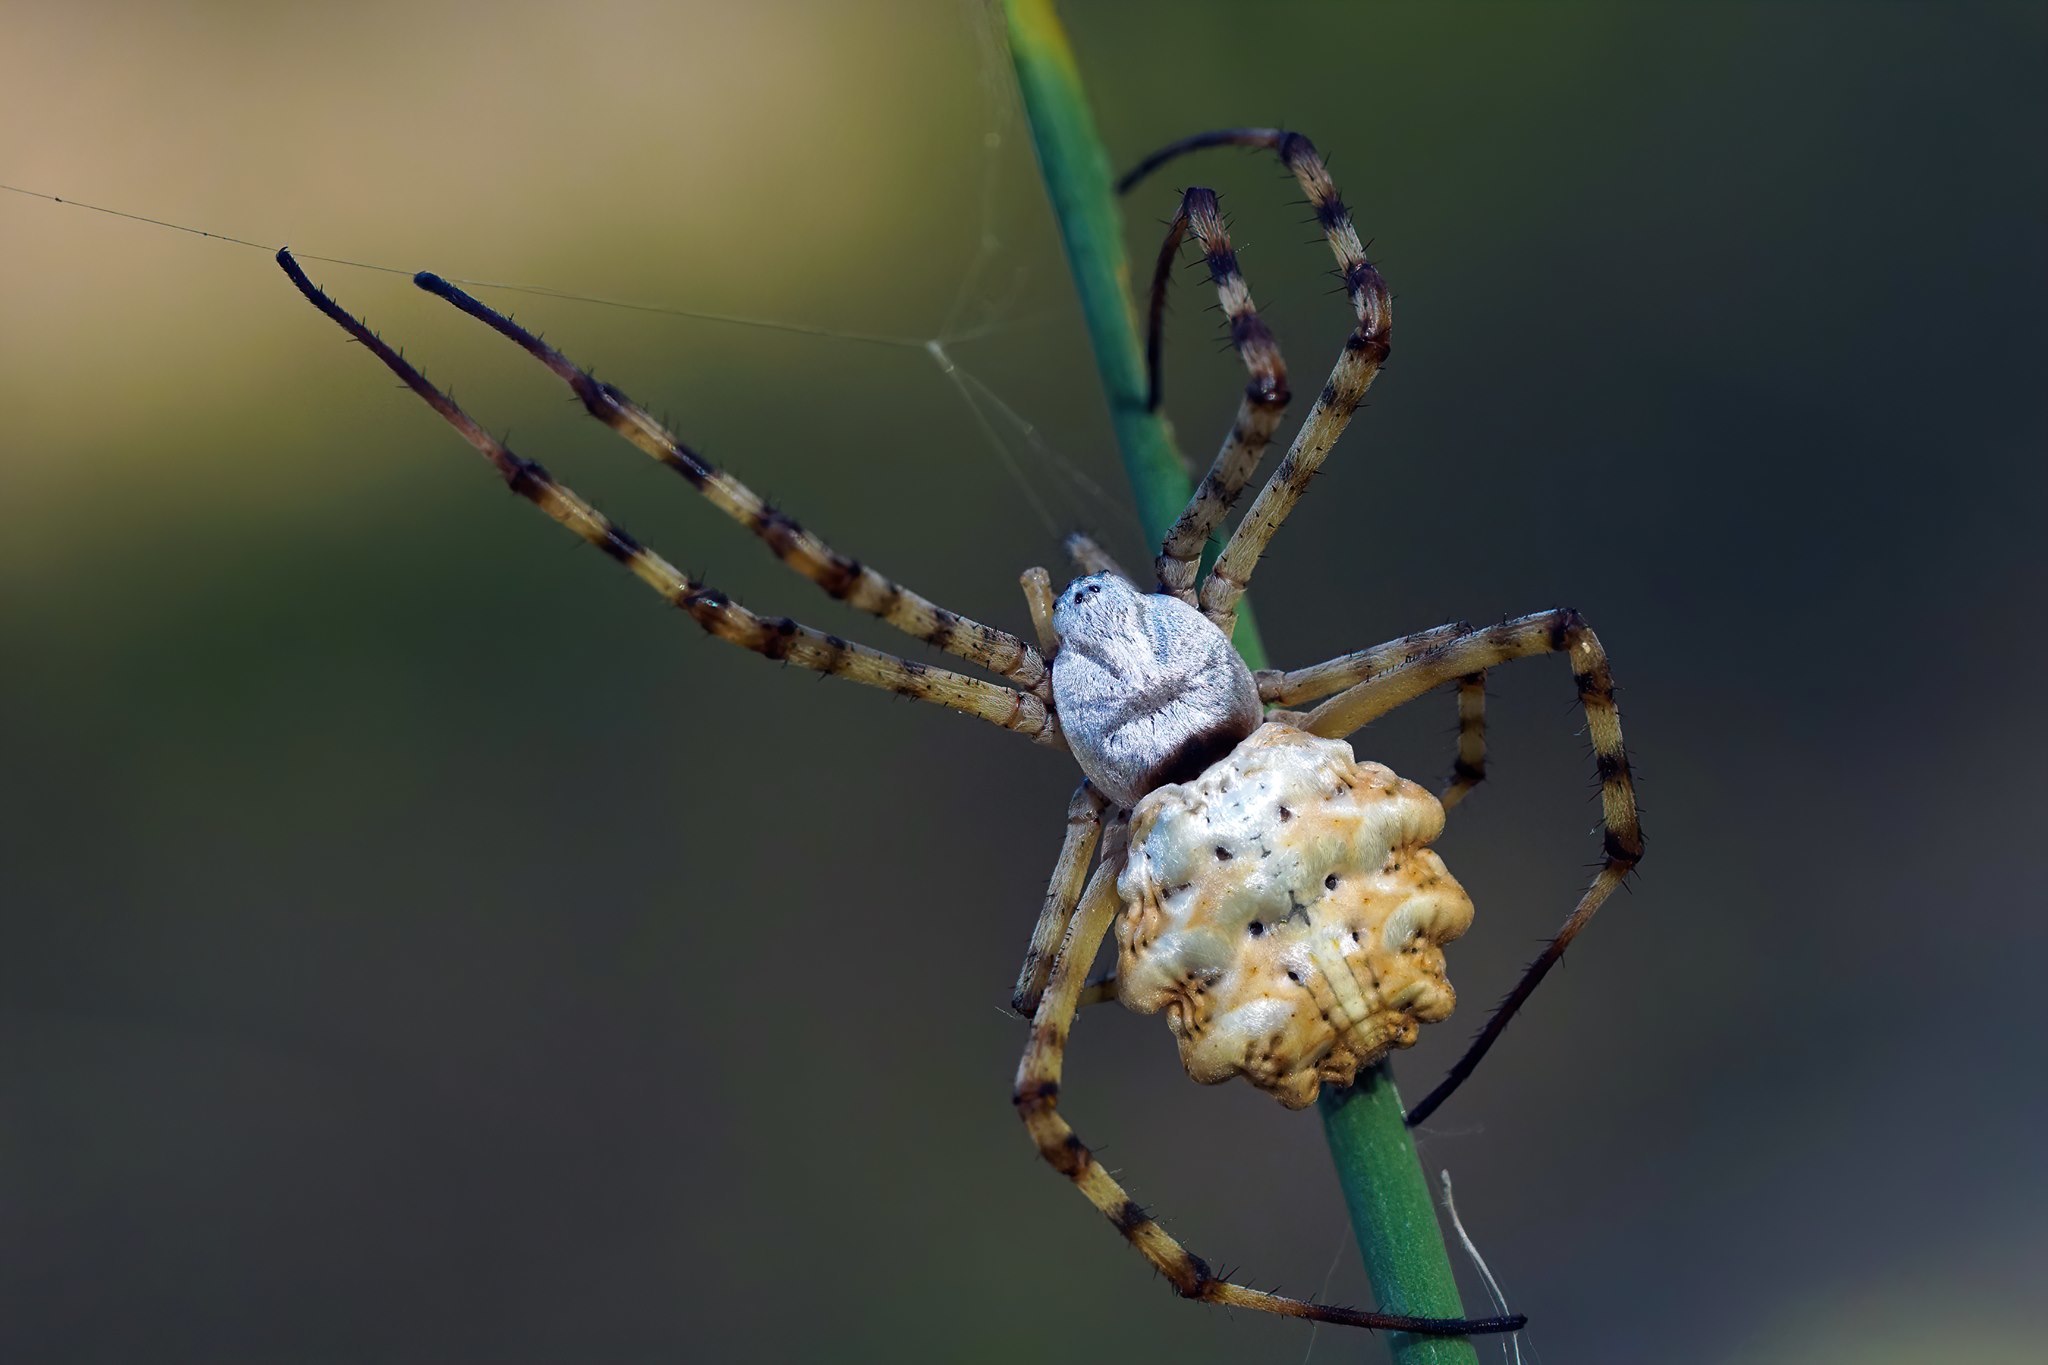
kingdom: Animalia
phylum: Arthropoda
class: Arachnida
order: Araneae
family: Araneidae
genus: Argiope
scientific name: Argiope lobata
